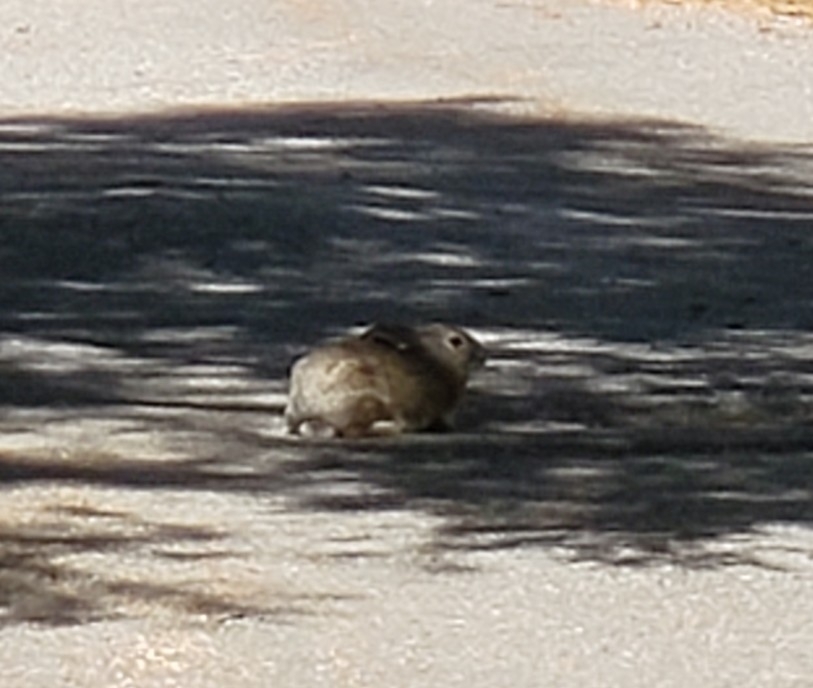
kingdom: Animalia
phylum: Chordata
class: Mammalia
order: Lagomorpha
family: Leporidae
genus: Sylvilagus
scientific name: Sylvilagus audubonii
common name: Desert cottontail
